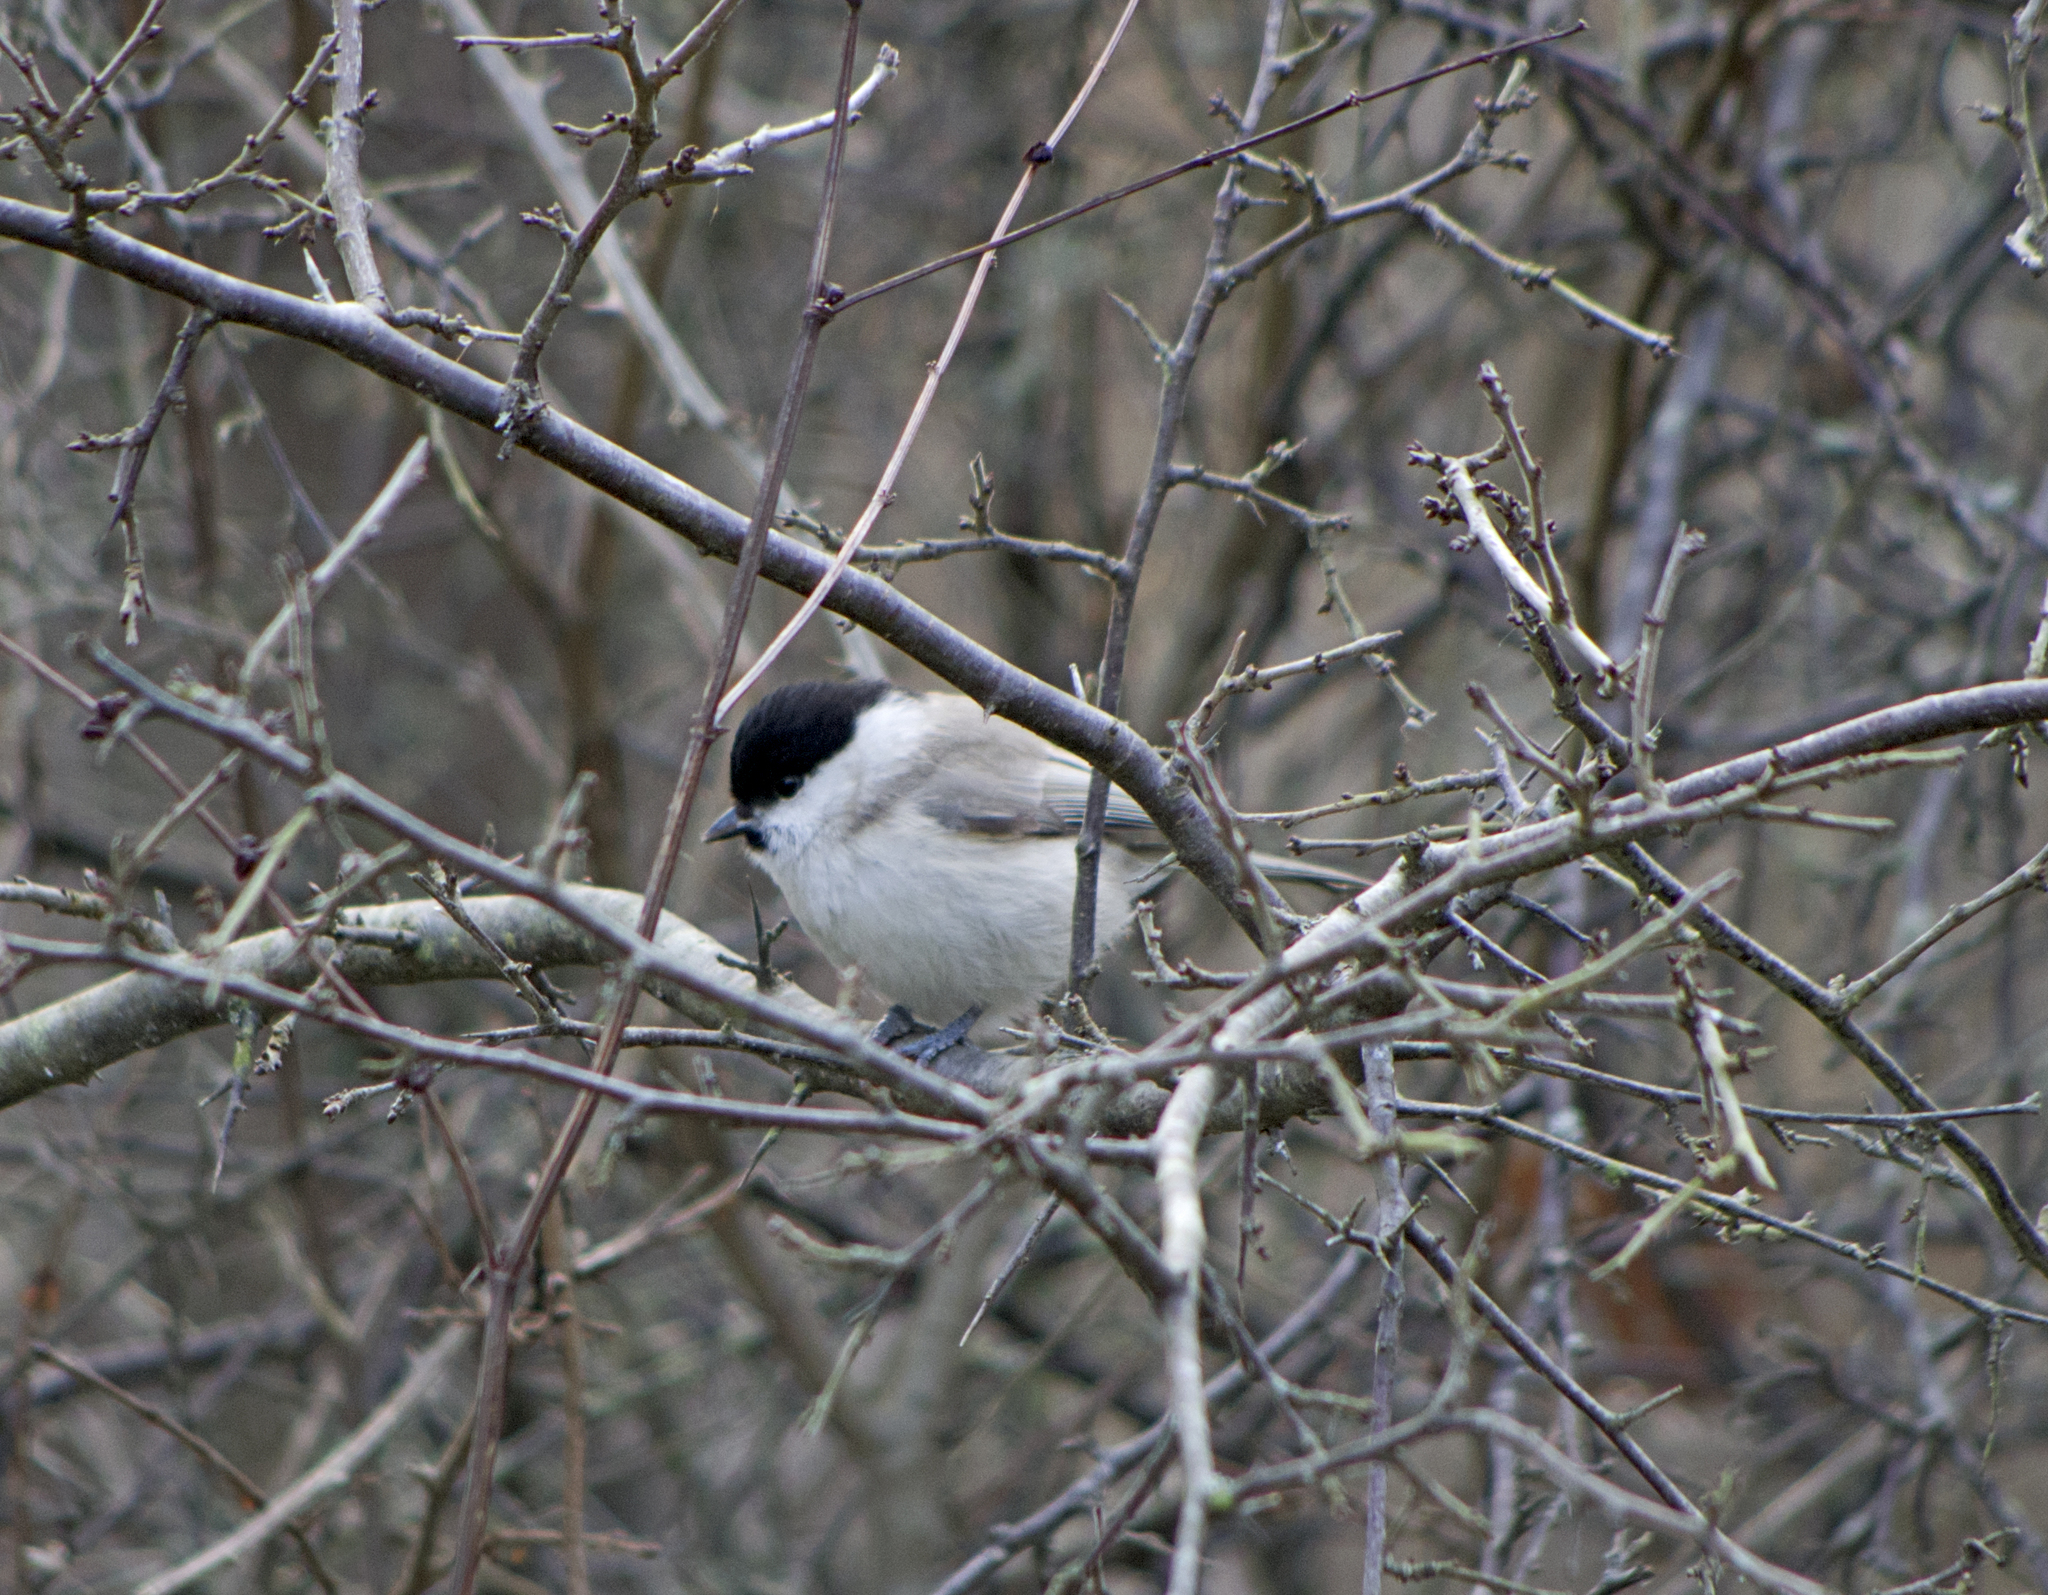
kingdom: Animalia
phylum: Chordata
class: Aves
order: Passeriformes
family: Paridae
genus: Poecile
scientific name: Poecile palustris
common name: Marsh tit
